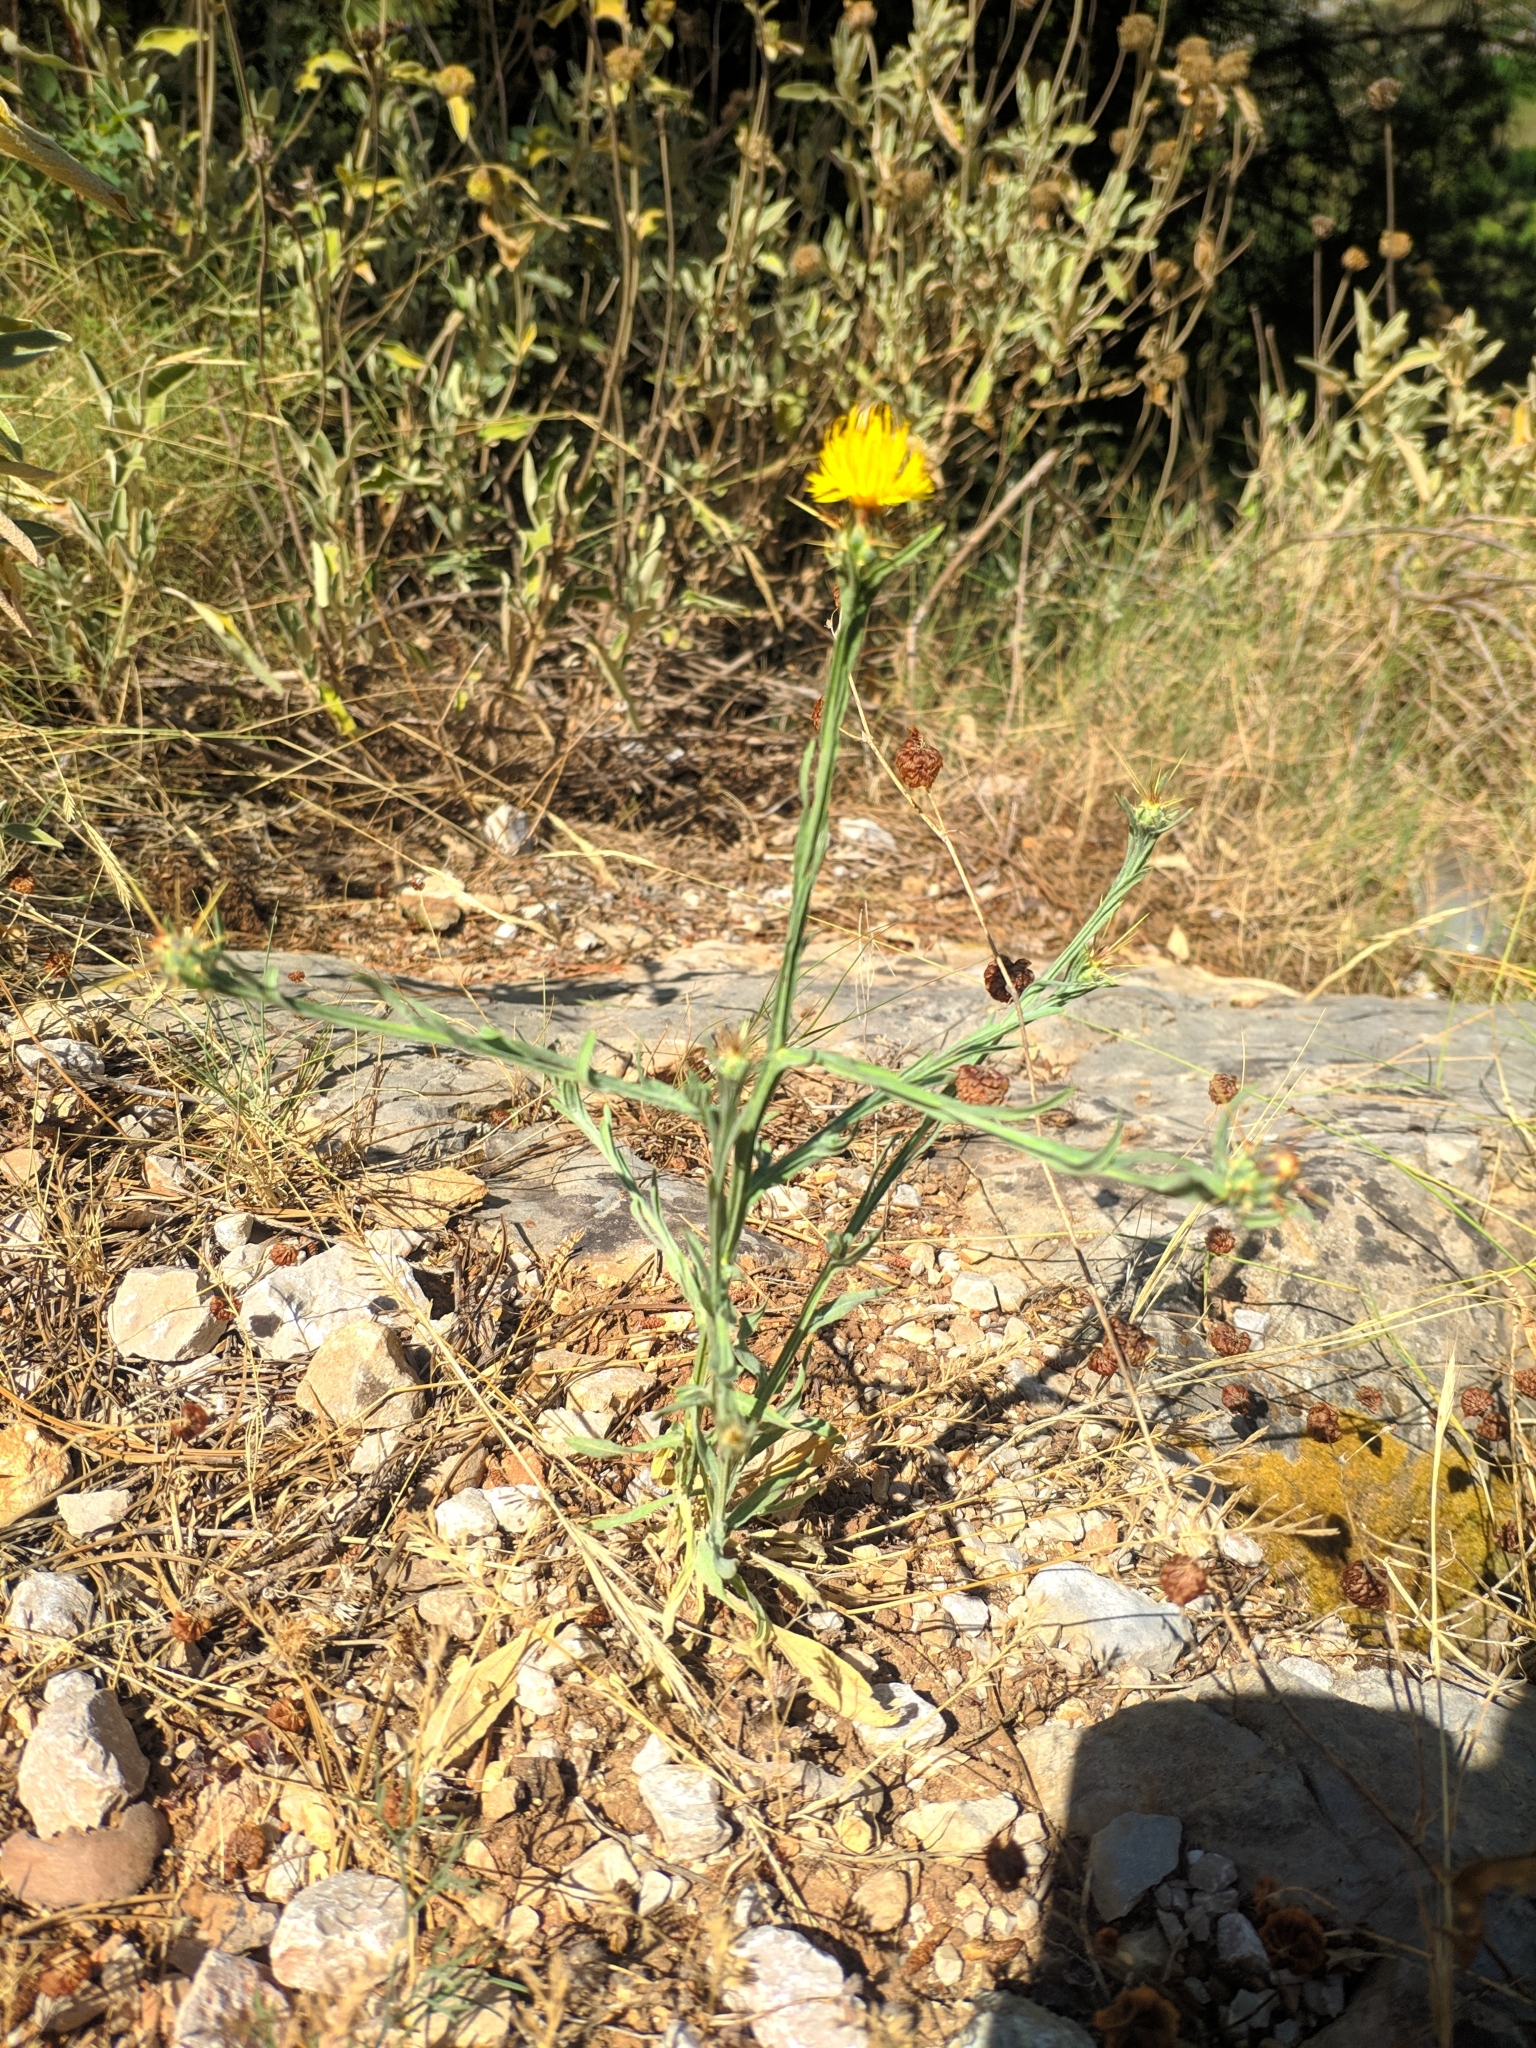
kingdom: Plantae
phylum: Tracheophyta
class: Magnoliopsida
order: Asterales
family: Asteraceae
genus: Centaurea
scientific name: Centaurea solstitialis
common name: Yellow star-thistle
